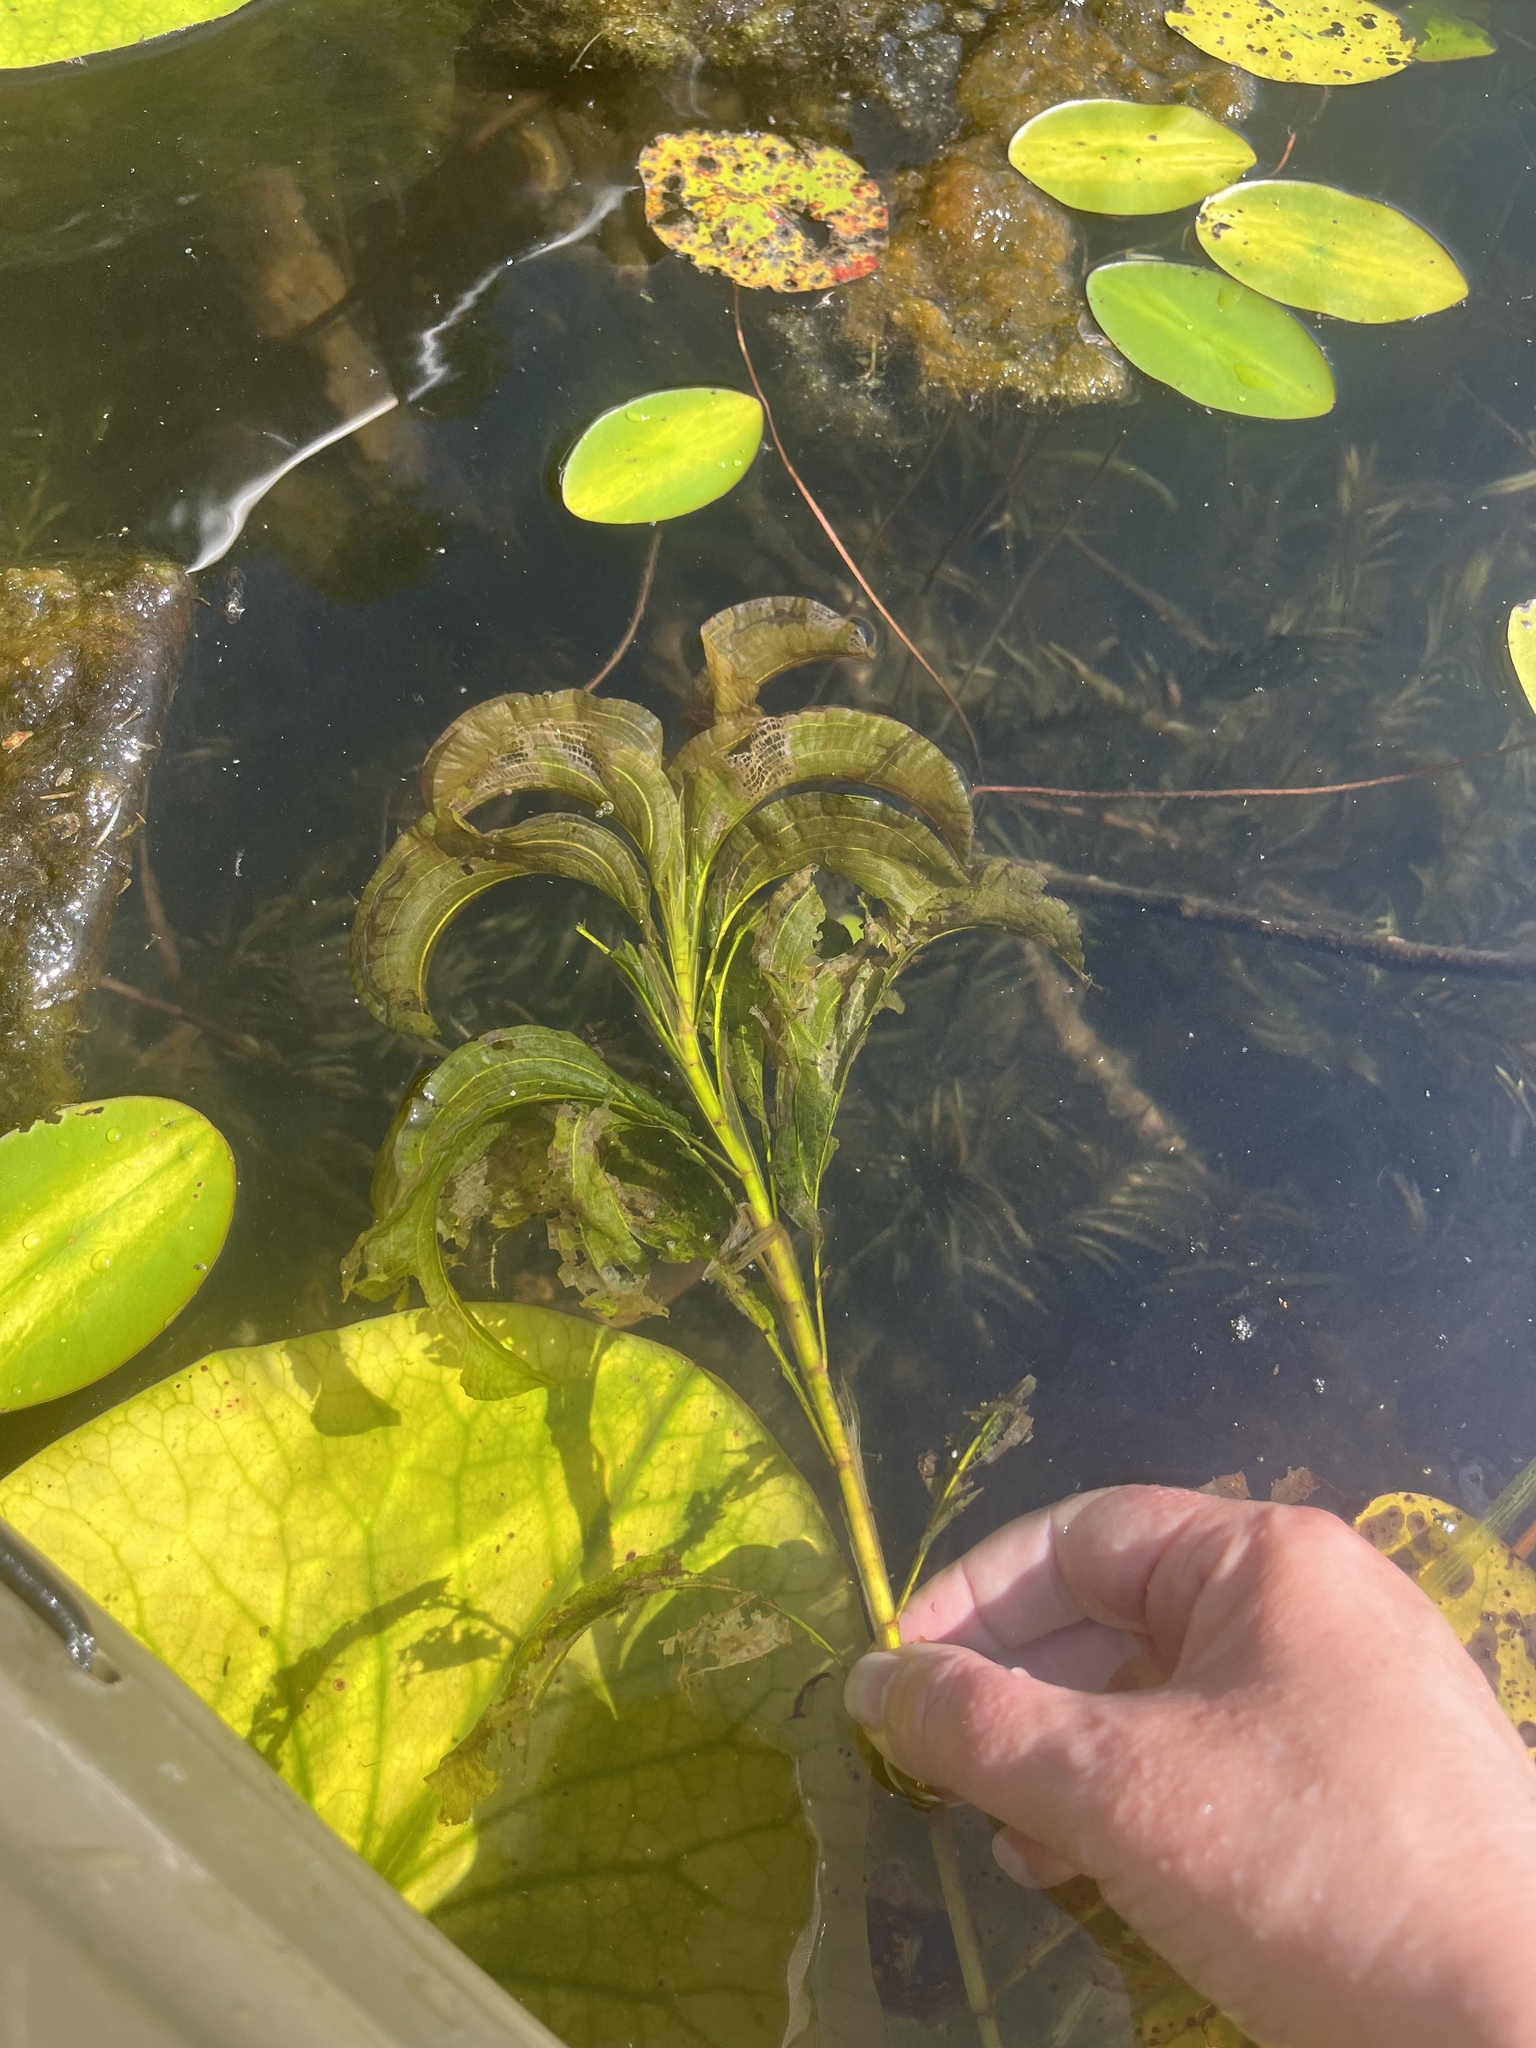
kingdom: Plantae
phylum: Tracheophyta
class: Liliopsida
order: Alismatales
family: Potamogetonaceae
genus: Potamogeton
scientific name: Potamogeton amplifolius
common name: Broad-leaved pondweed
